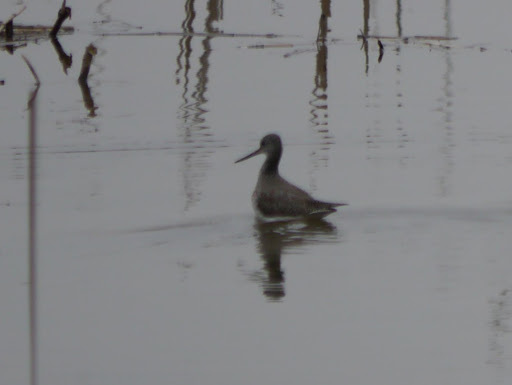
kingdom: Animalia
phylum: Chordata
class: Aves
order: Charadriiformes
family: Scolopacidae
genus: Tringa
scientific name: Tringa melanoleuca
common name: Greater yellowlegs
